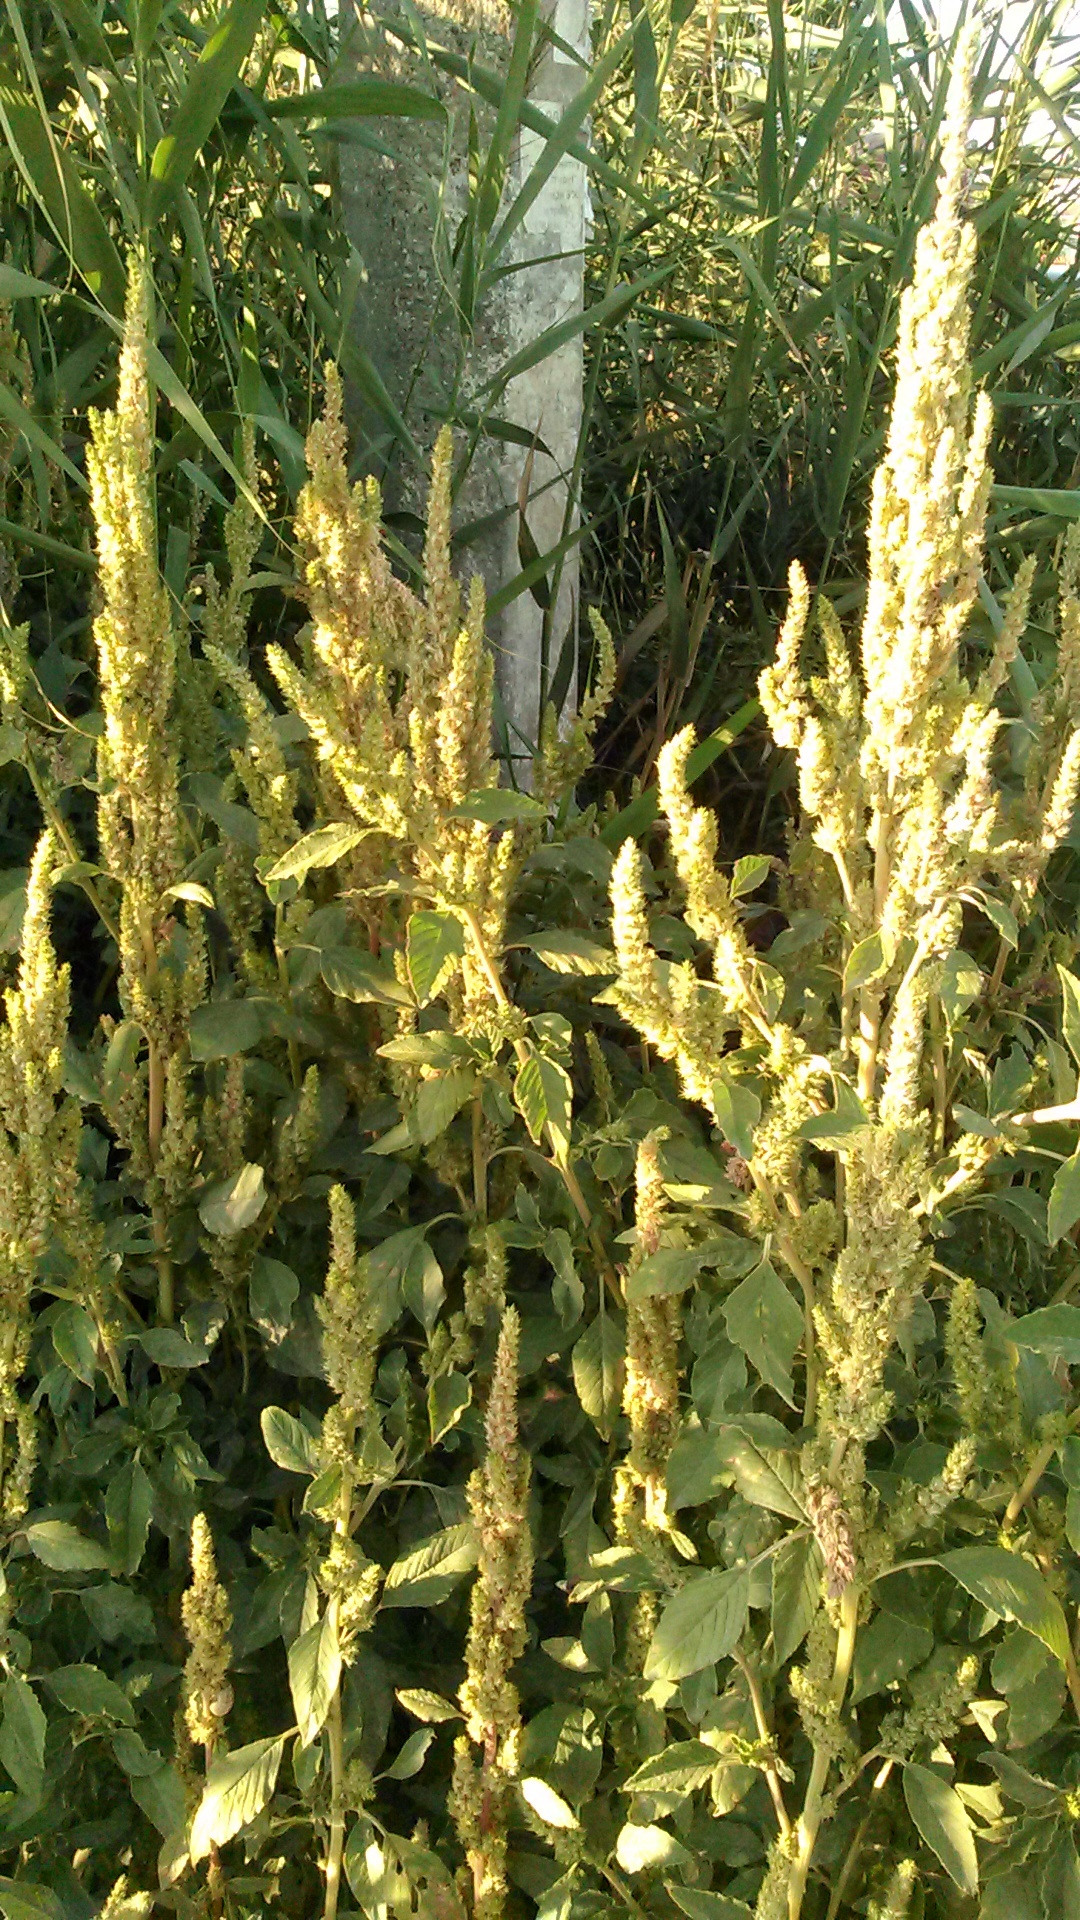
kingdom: Plantae
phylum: Tracheophyta
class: Magnoliopsida
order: Caryophyllales
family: Amaranthaceae
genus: Amaranthus
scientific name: Amaranthus retroflexus
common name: Redroot amaranth
